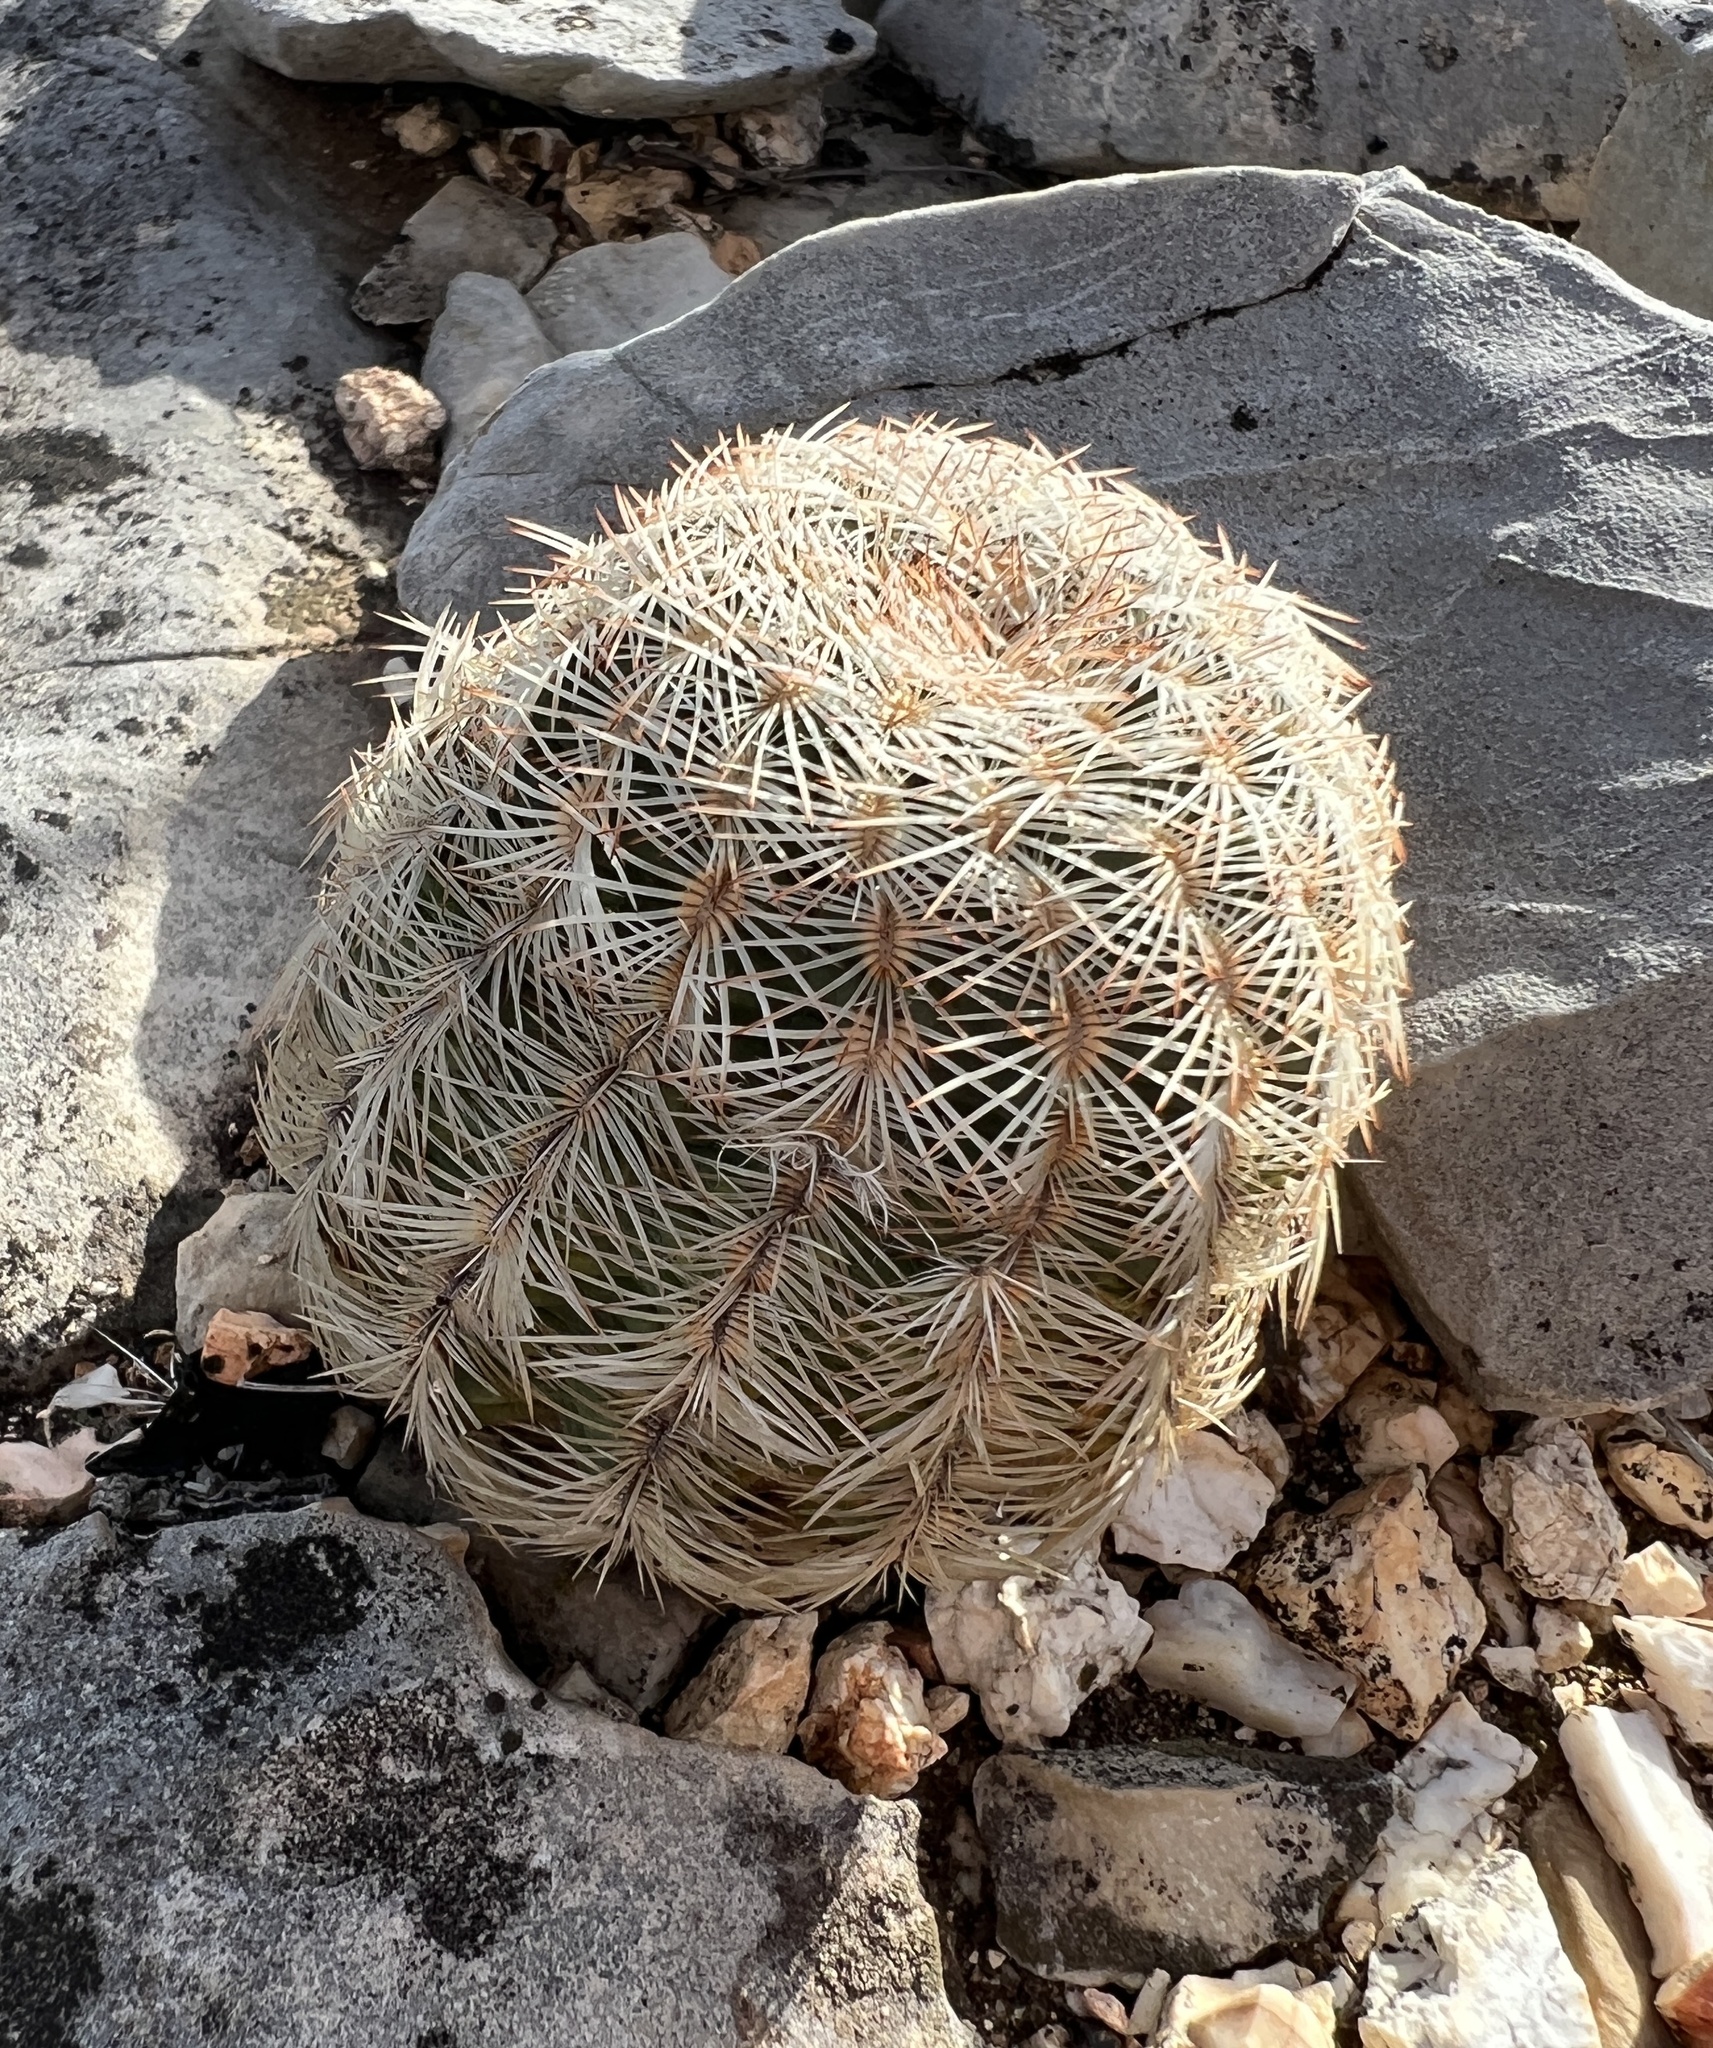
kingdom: Plantae
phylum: Tracheophyta
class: Magnoliopsida
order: Caryophyllales
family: Cactaceae
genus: Echinocereus
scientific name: Echinocereus reichenbachii
